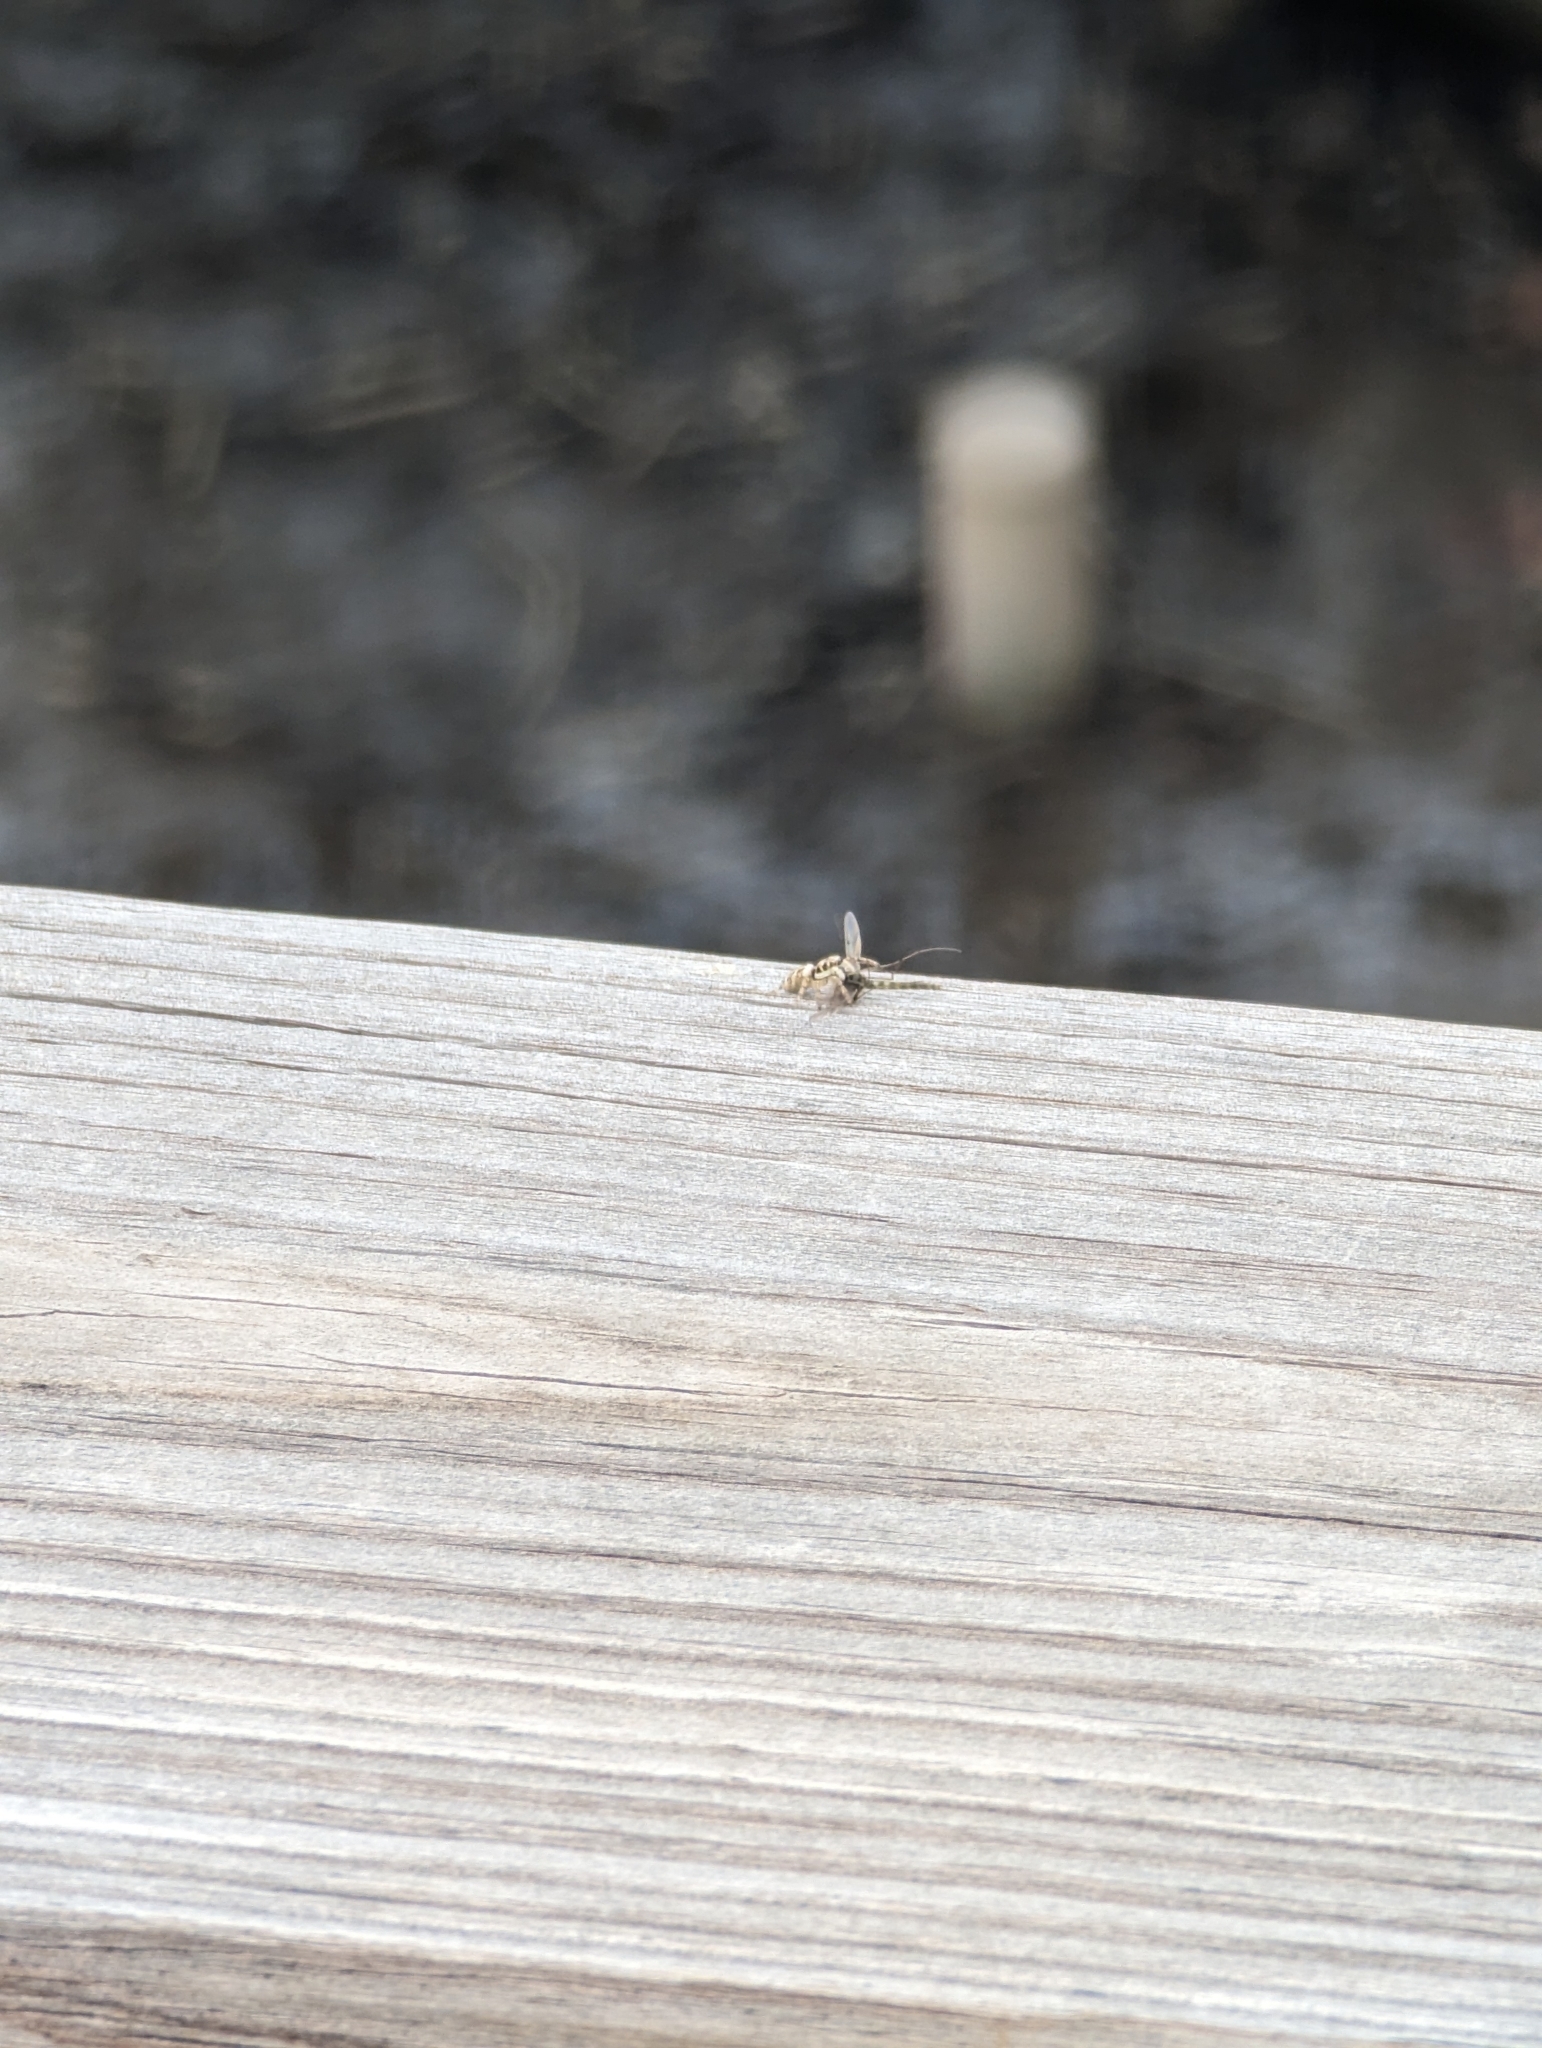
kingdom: Animalia
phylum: Arthropoda
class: Arachnida
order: Araneae
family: Salticidae
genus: Salticus
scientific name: Salticus scenicus
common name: Zebra jumper
